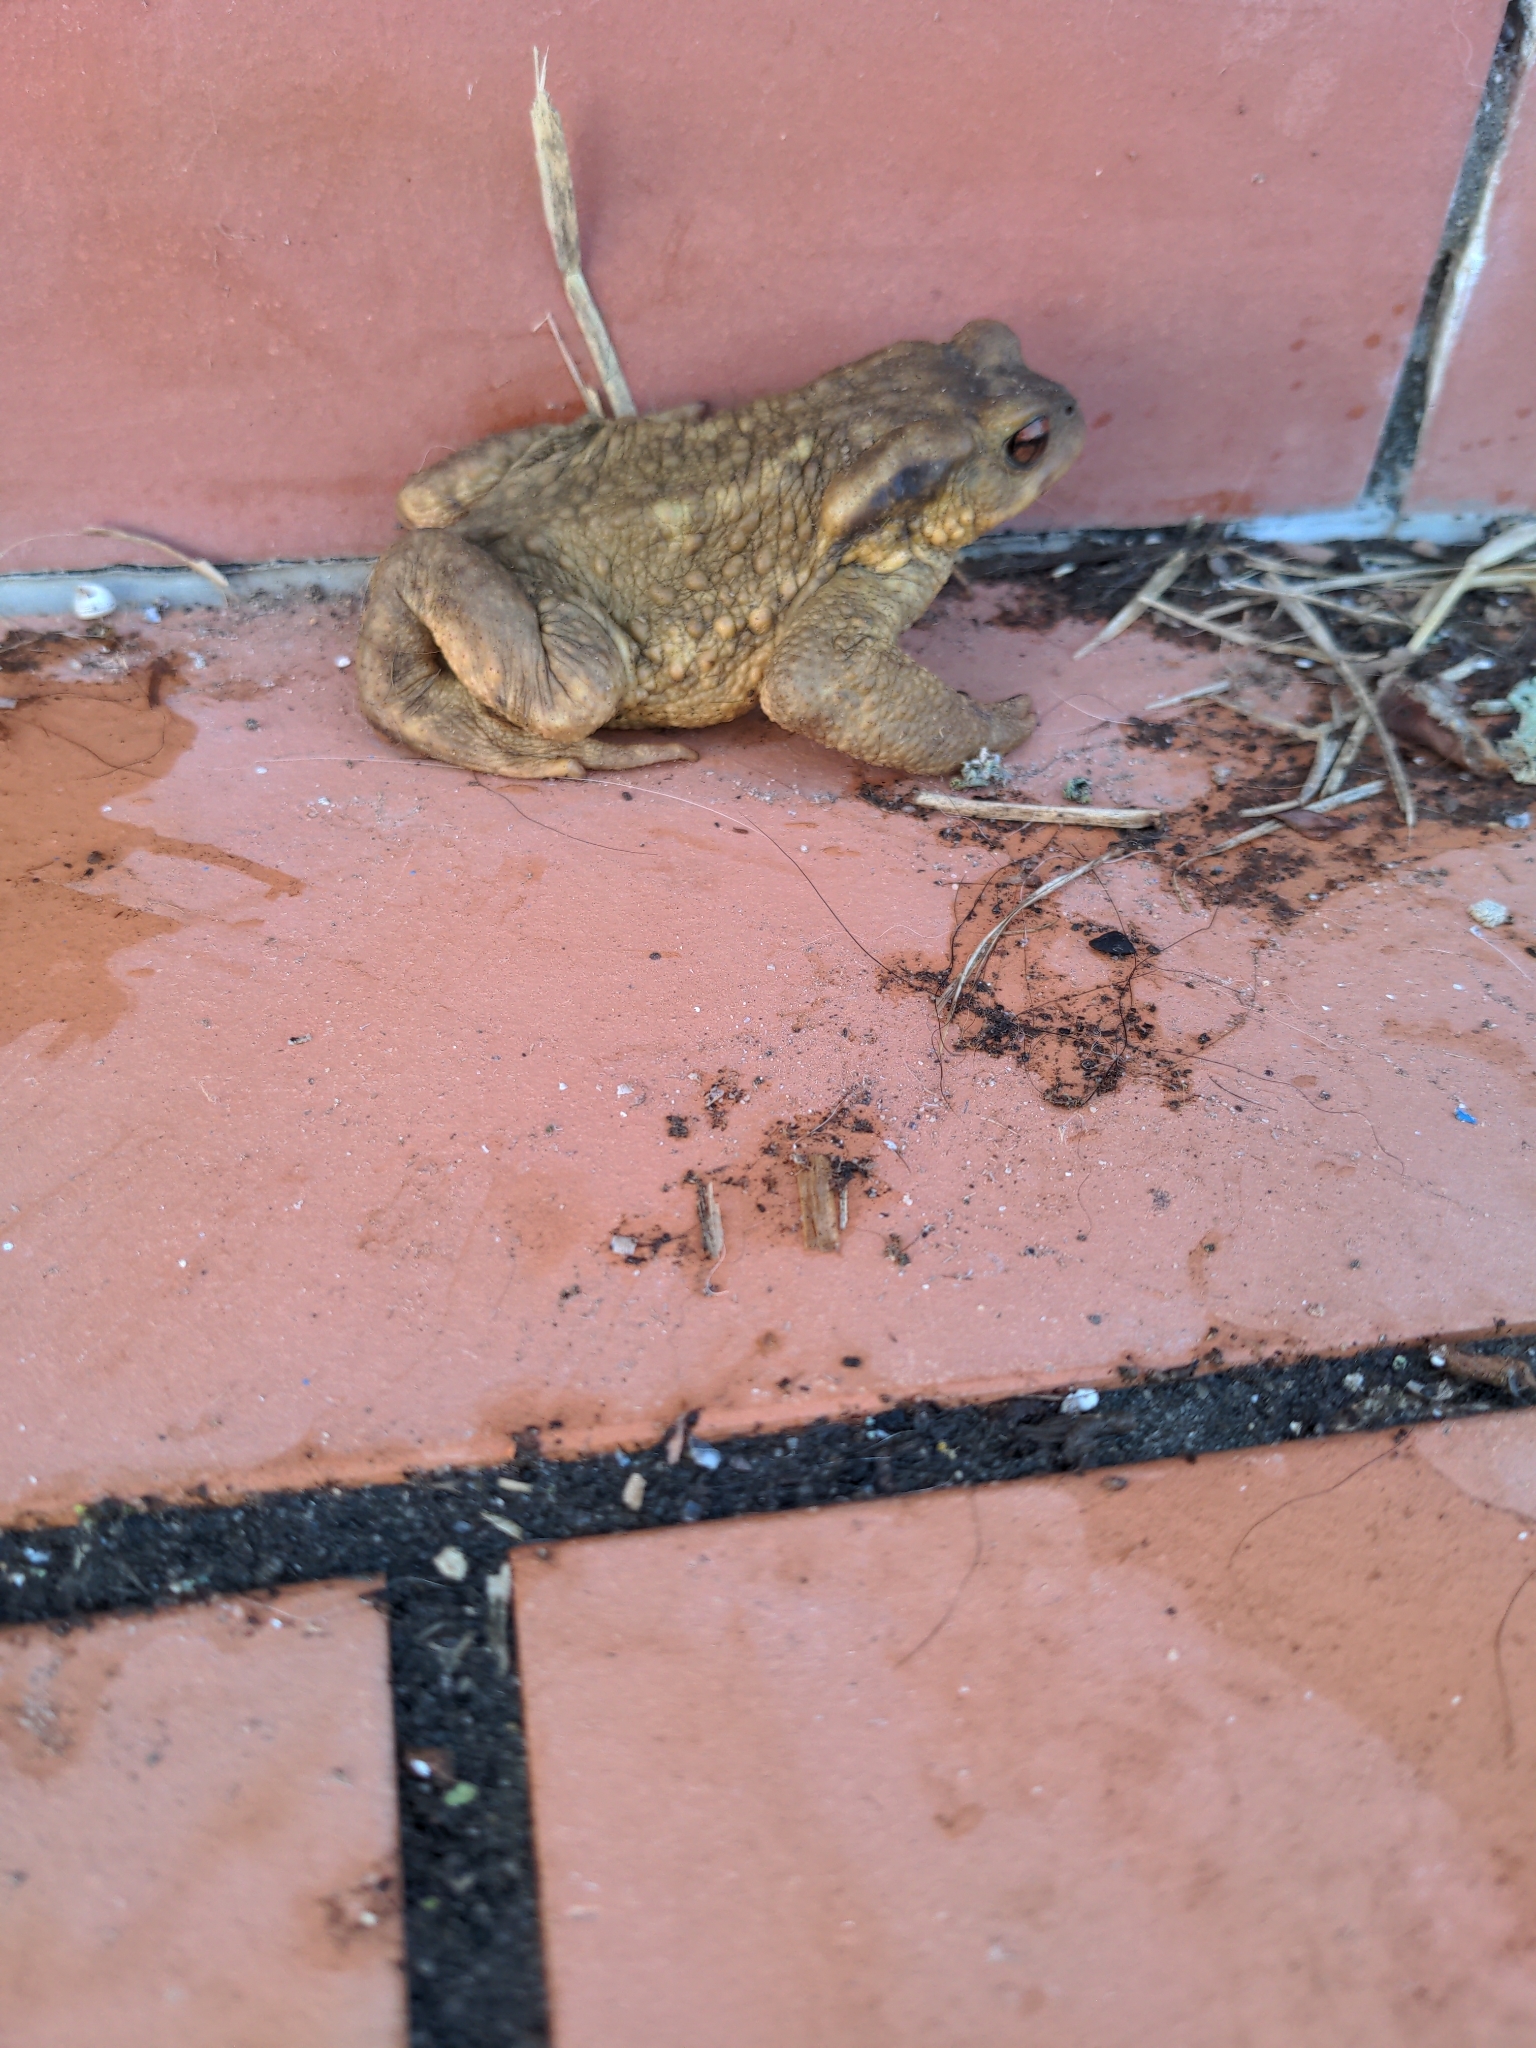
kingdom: Animalia
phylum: Chordata
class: Amphibia
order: Anura
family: Bufonidae
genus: Bufo
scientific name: Bufo spinosus
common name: Western common toad
